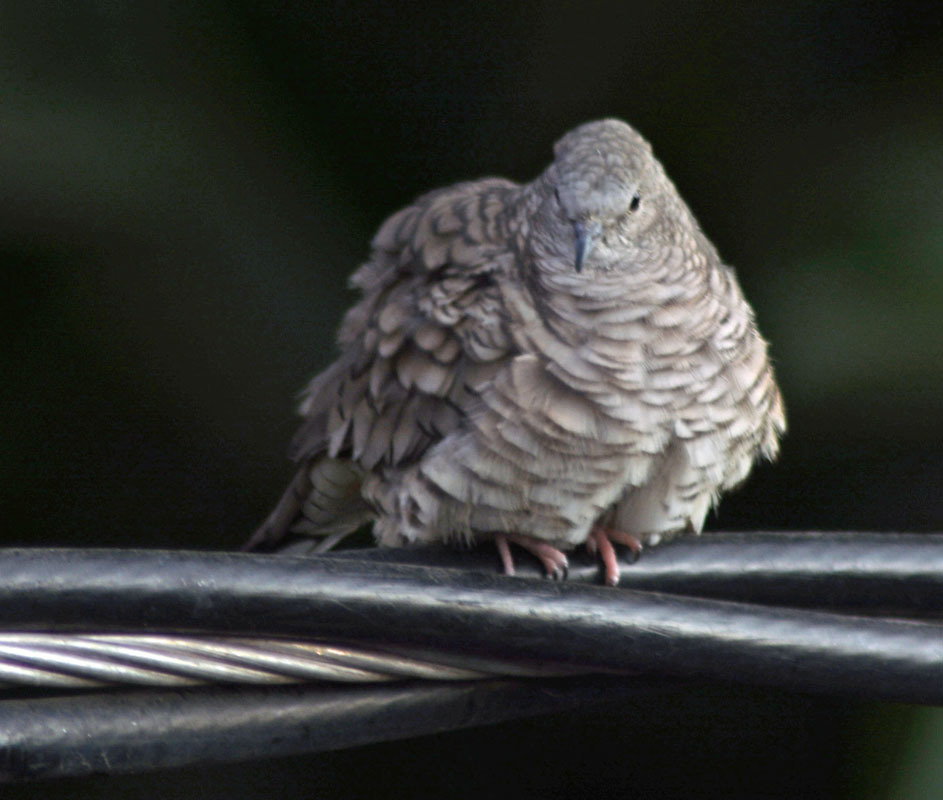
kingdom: Animalia
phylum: Chordata
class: Aves
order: Columbiformes
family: Columbidae
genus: Columbina
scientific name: Columbina inca
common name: Inca dove
